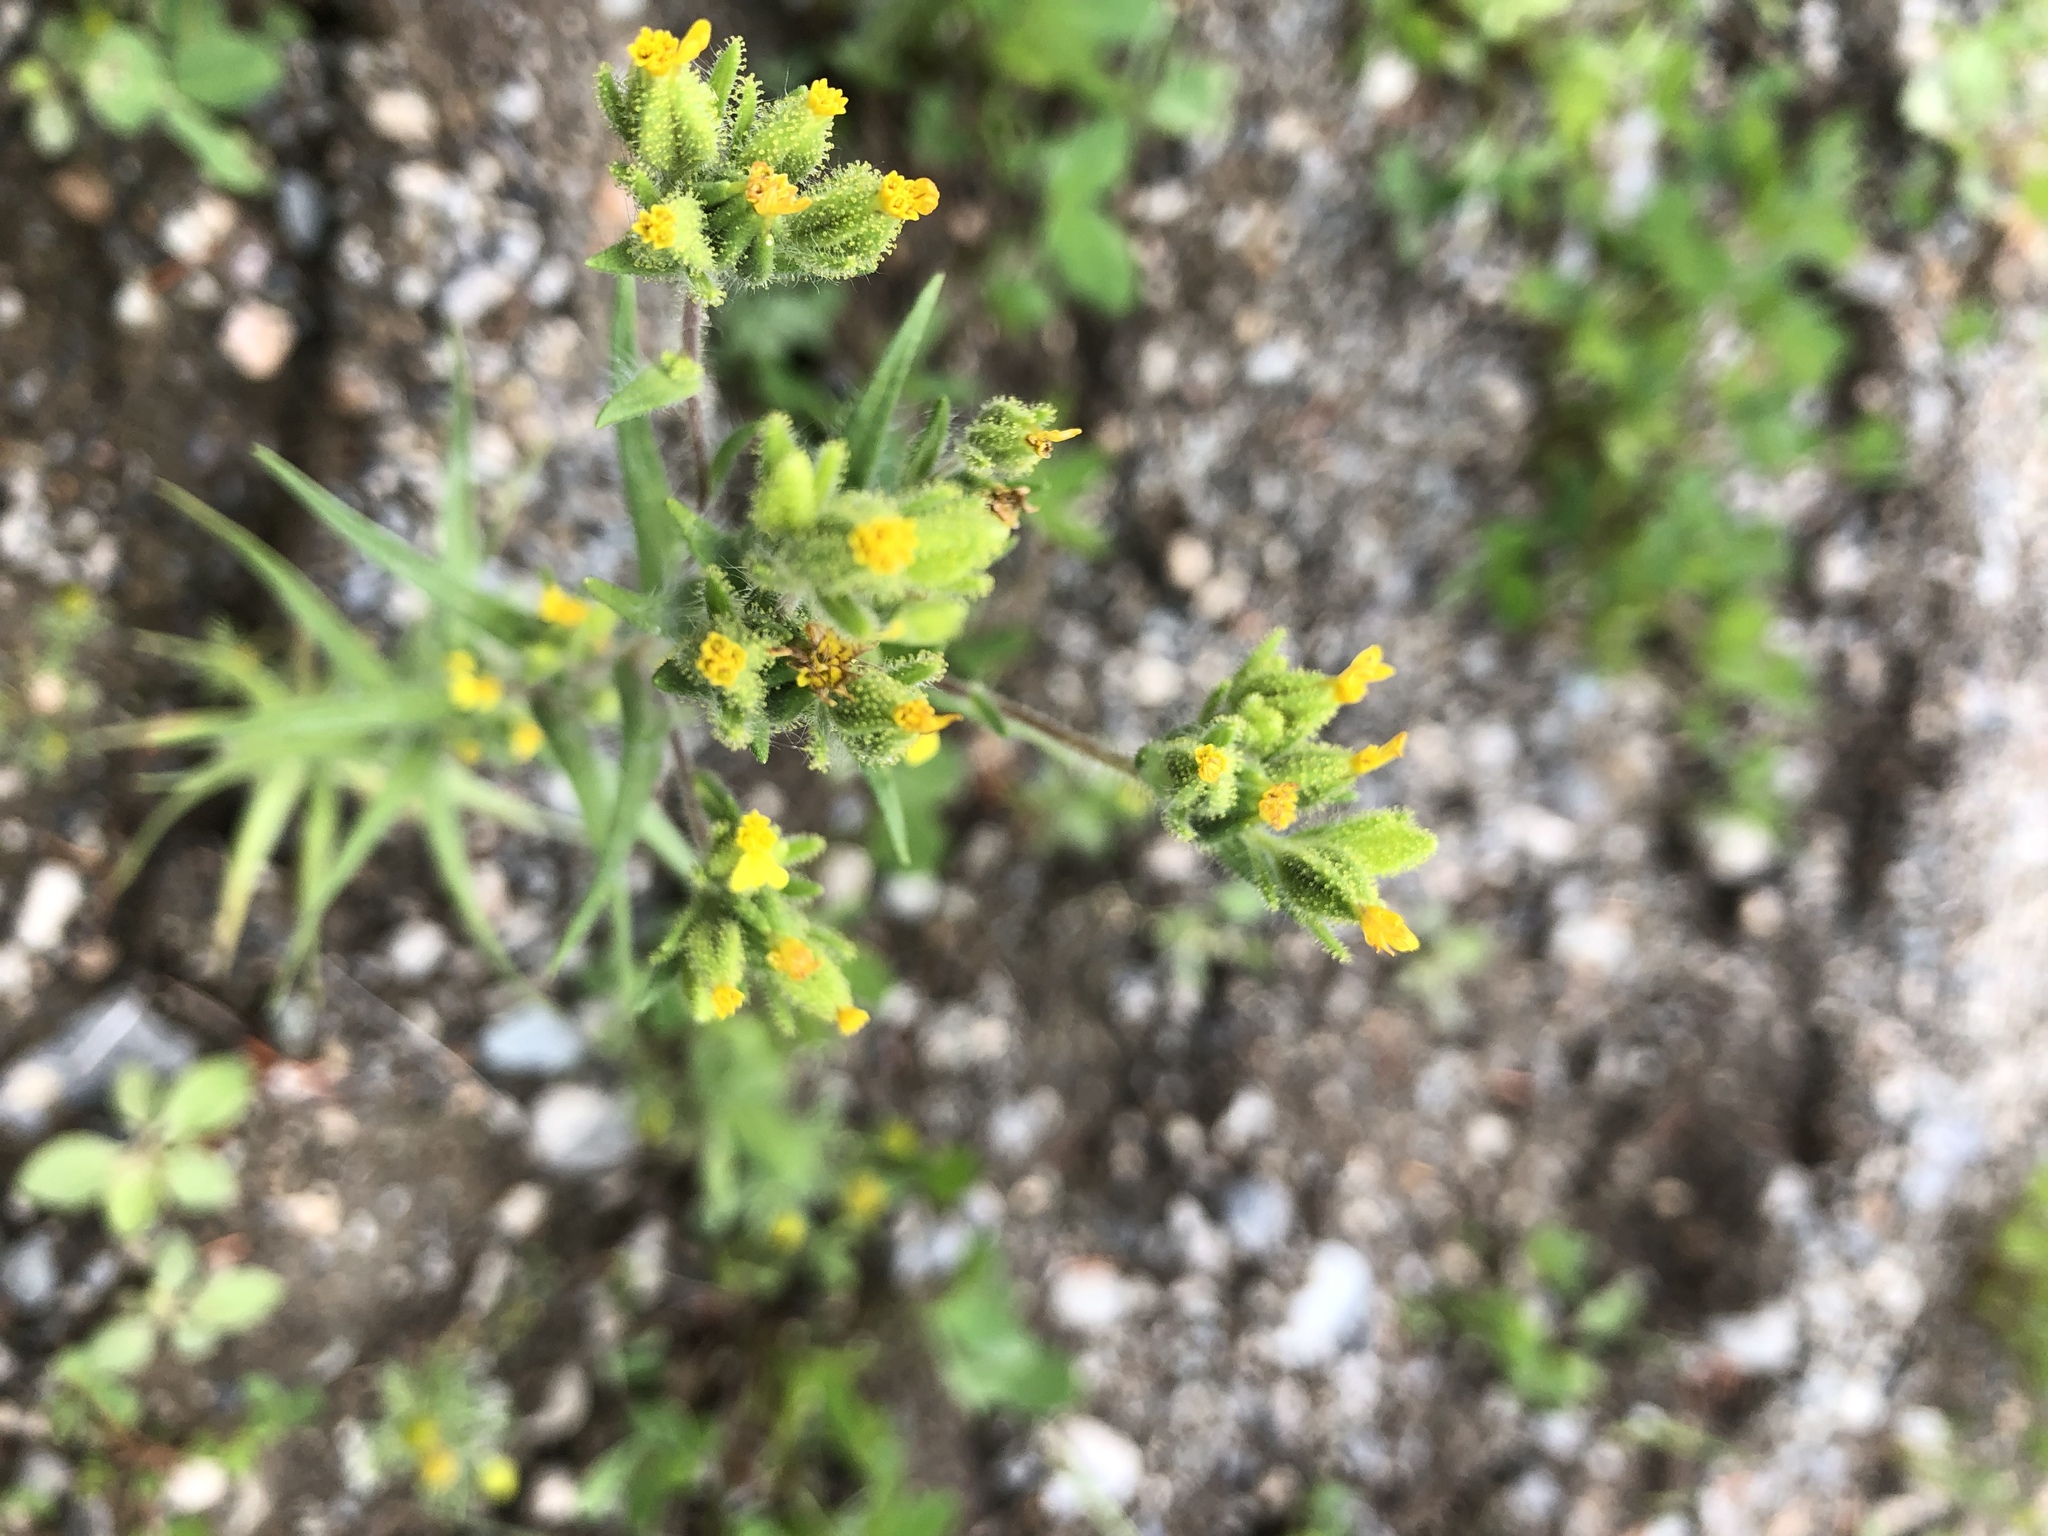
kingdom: Plantae
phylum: Tracheophyta
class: Magnoliopsida
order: Asterales
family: Asteraceae
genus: Madia
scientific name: Madia glomerata
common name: Mountain tarweed
